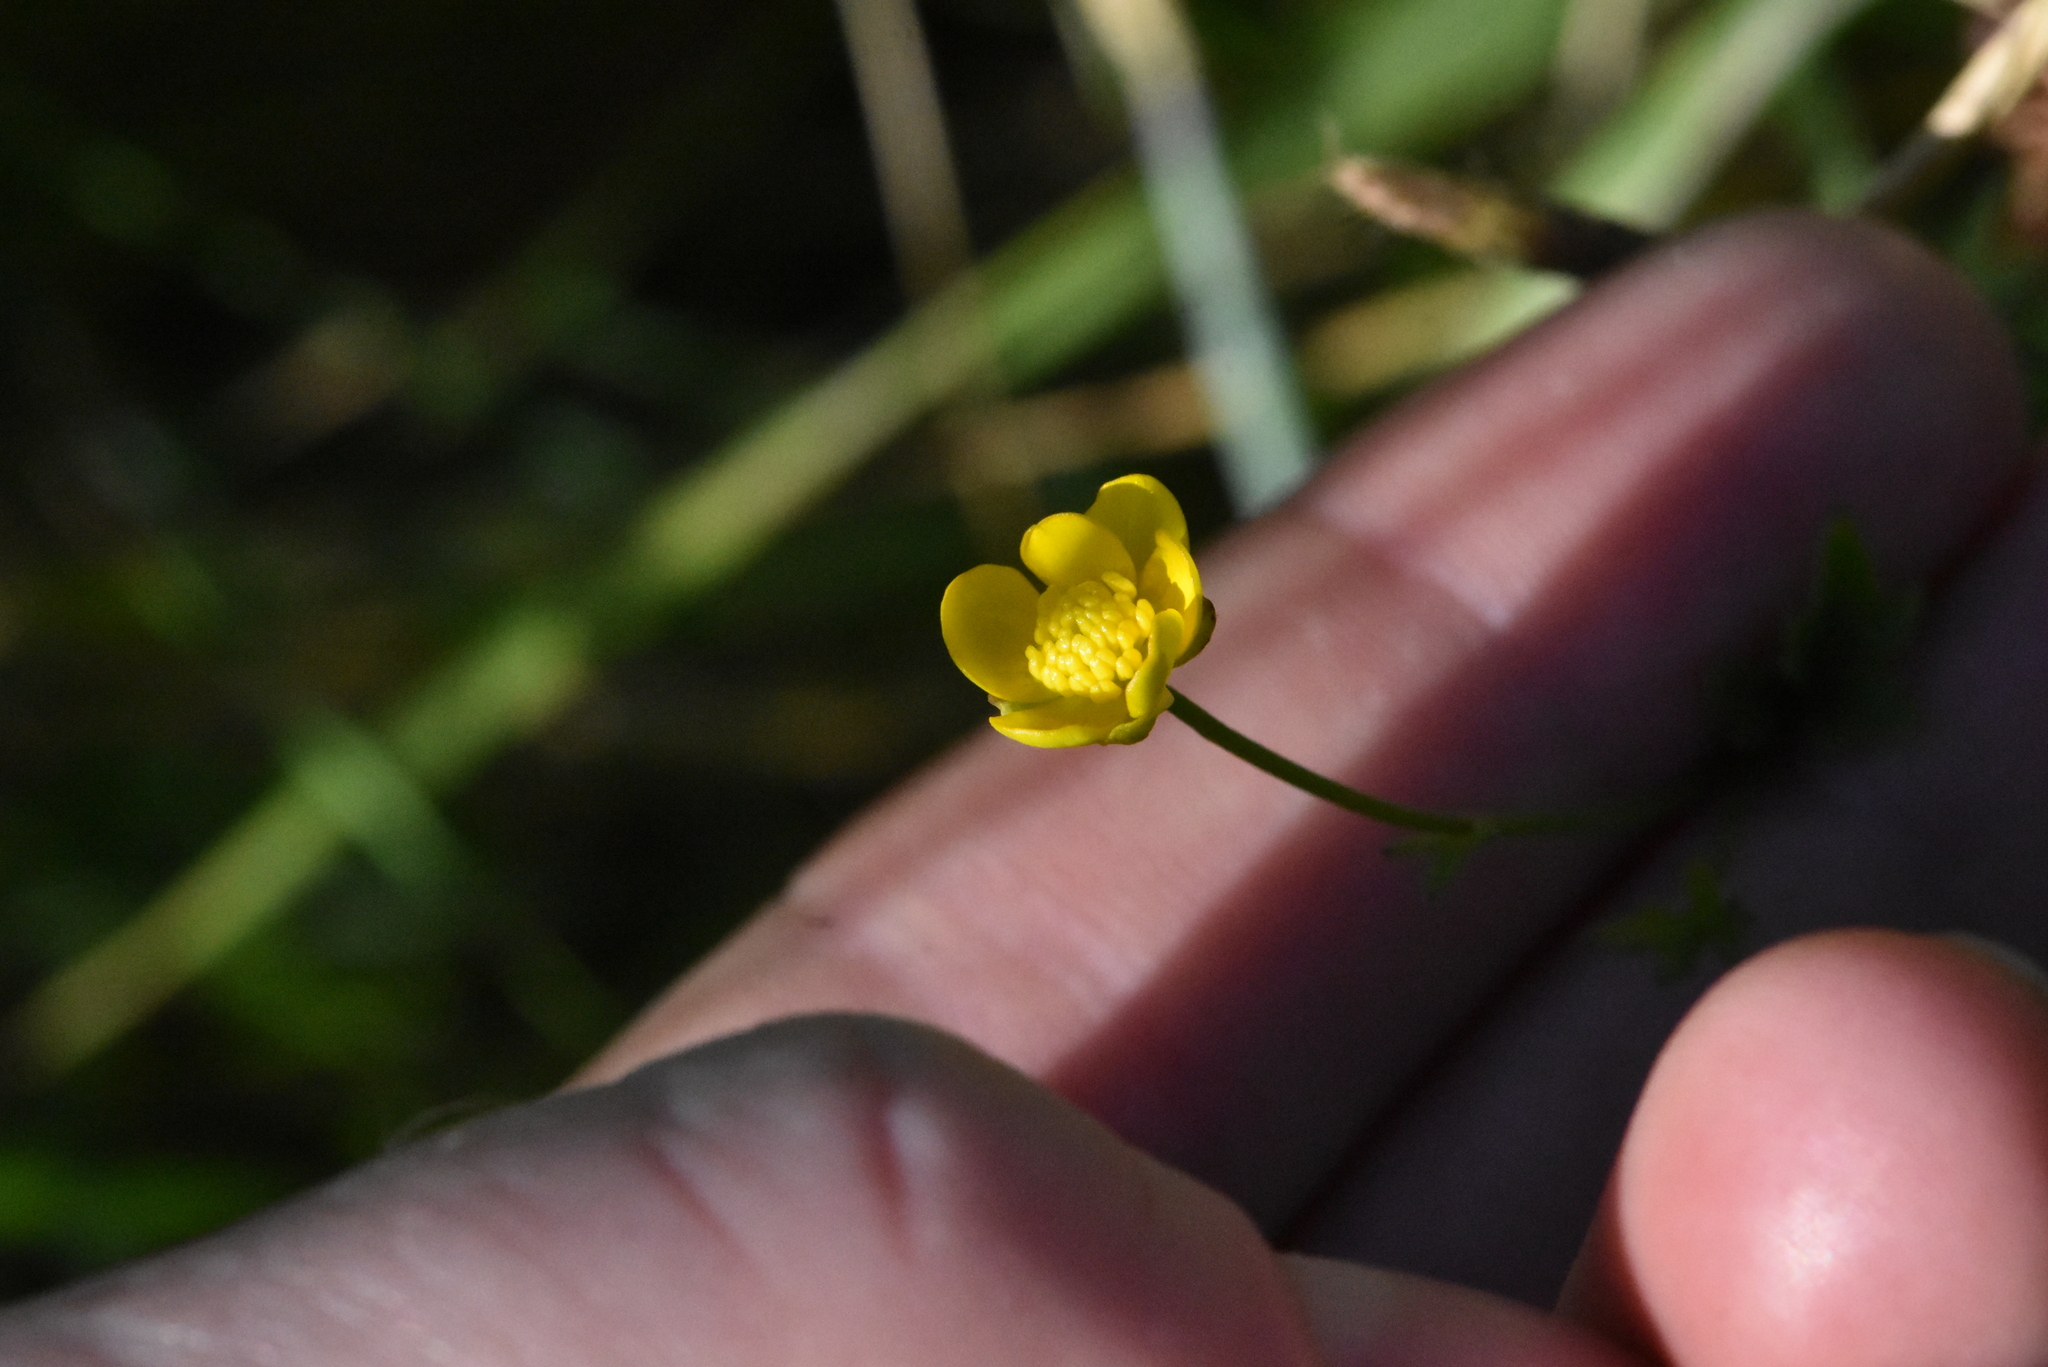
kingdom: Plantae
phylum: Tracheophyta
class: Magnoliopsida
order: Ranunculales
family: Ranunculaceae
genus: Ranunculus
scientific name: Ranunculus repens
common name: Creeping buttercup
